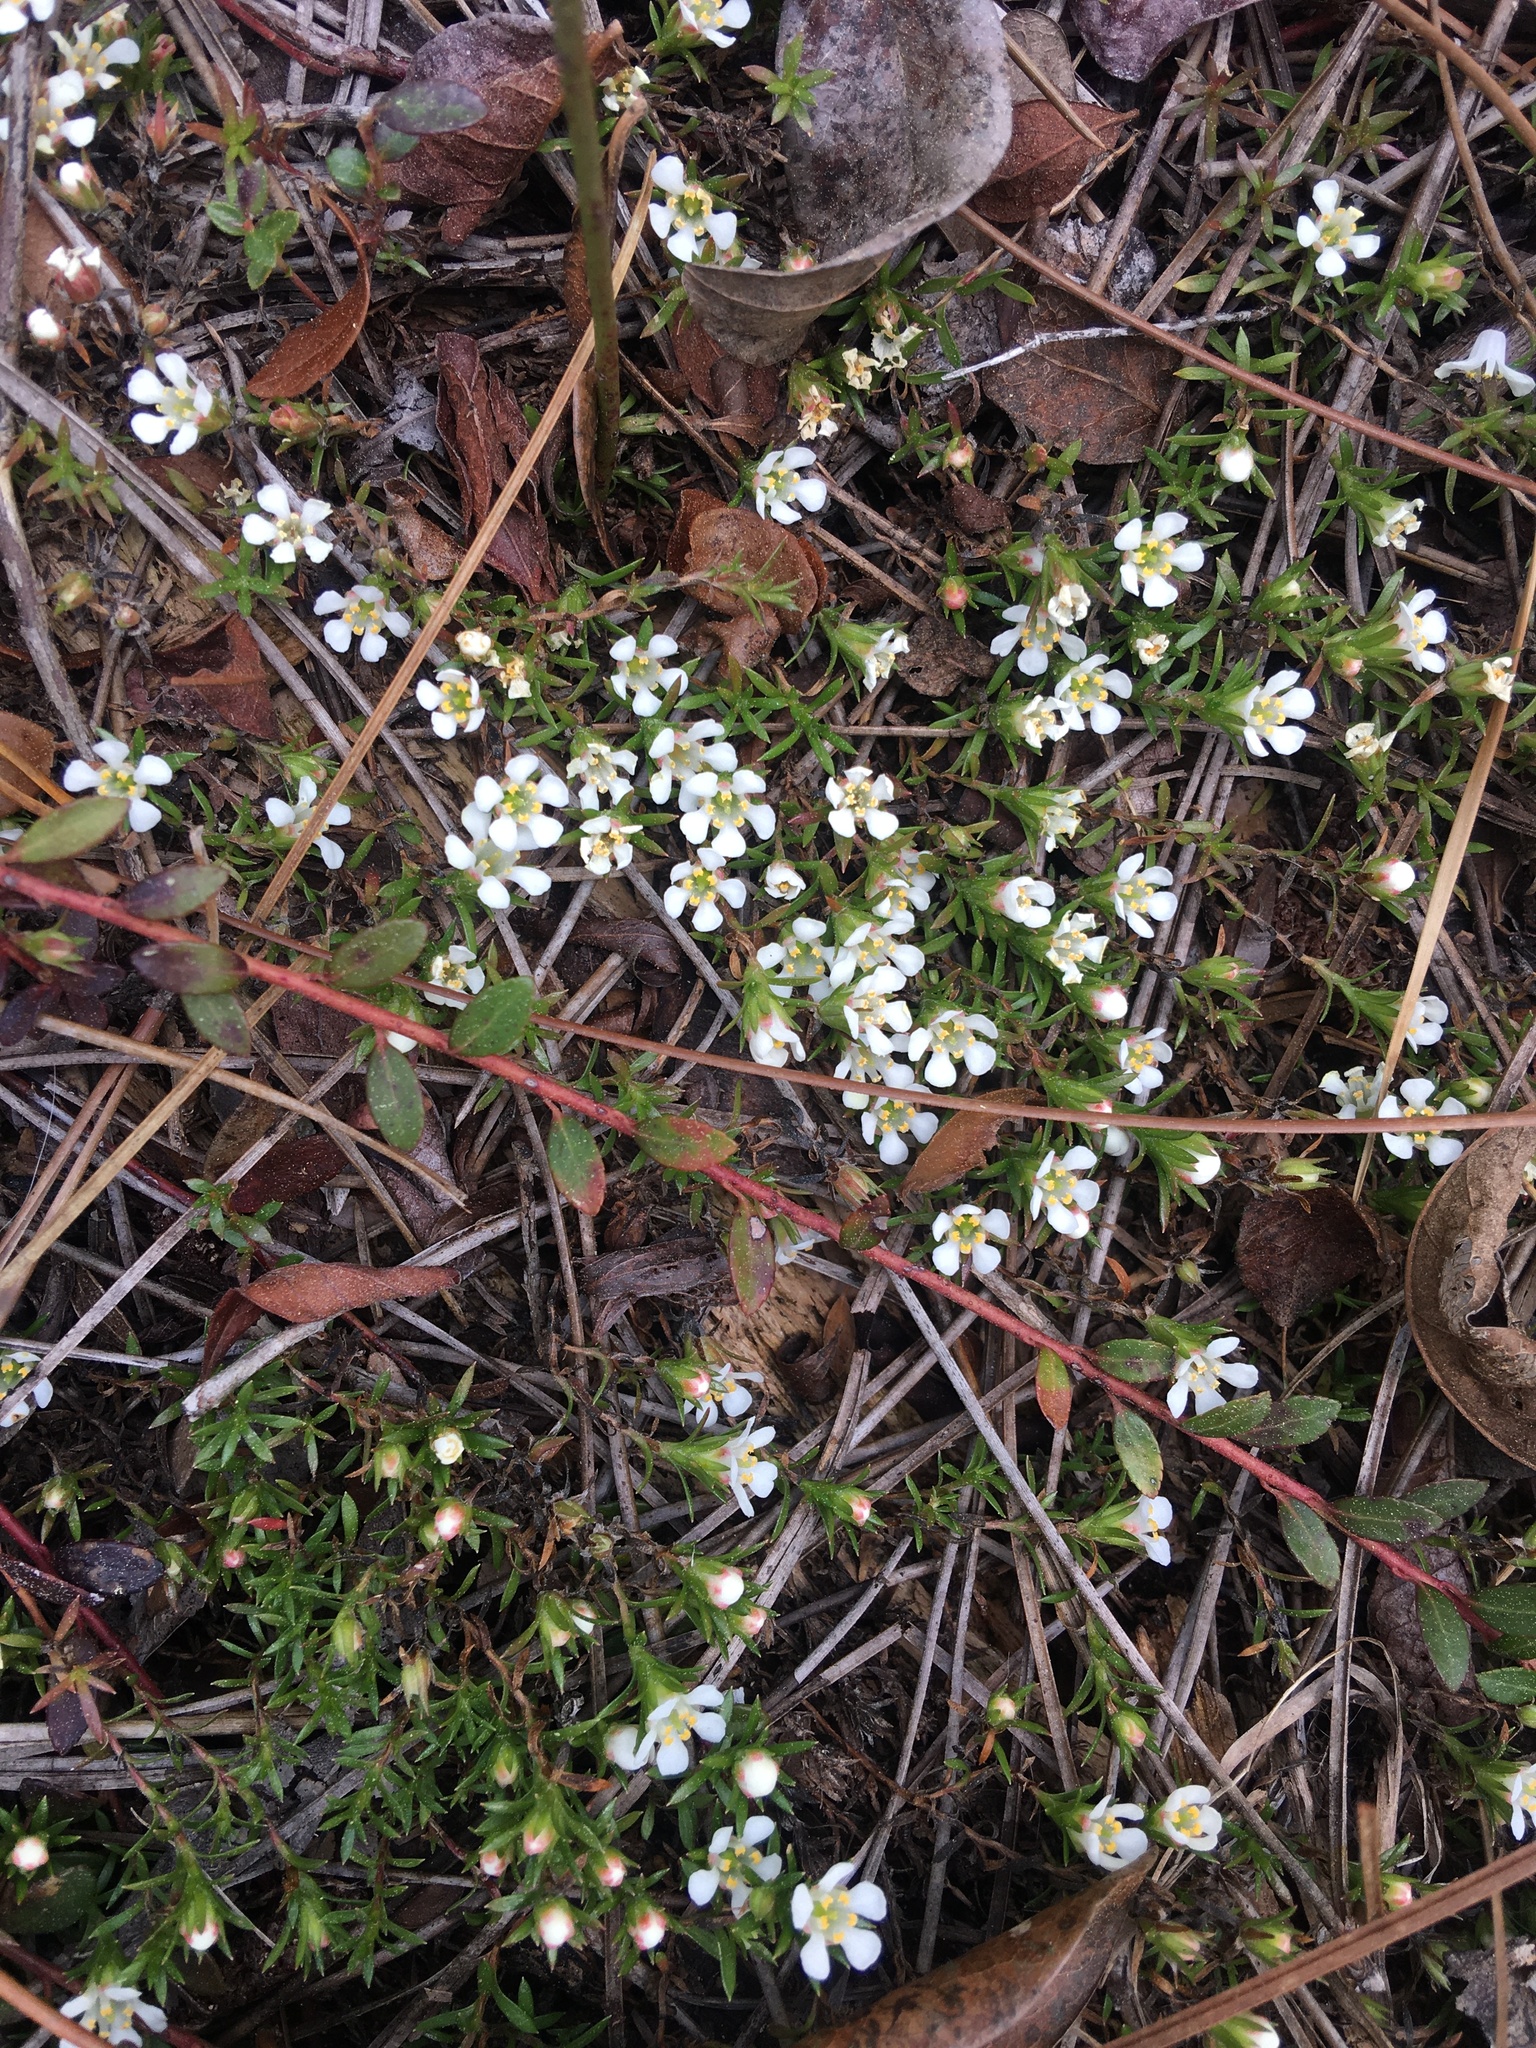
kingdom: Plantae
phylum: Tracheophyta
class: Magnoliopsida
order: Ericales
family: Diapensiaceae
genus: Pyxidanthera
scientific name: Pyxidanthera barbulata
